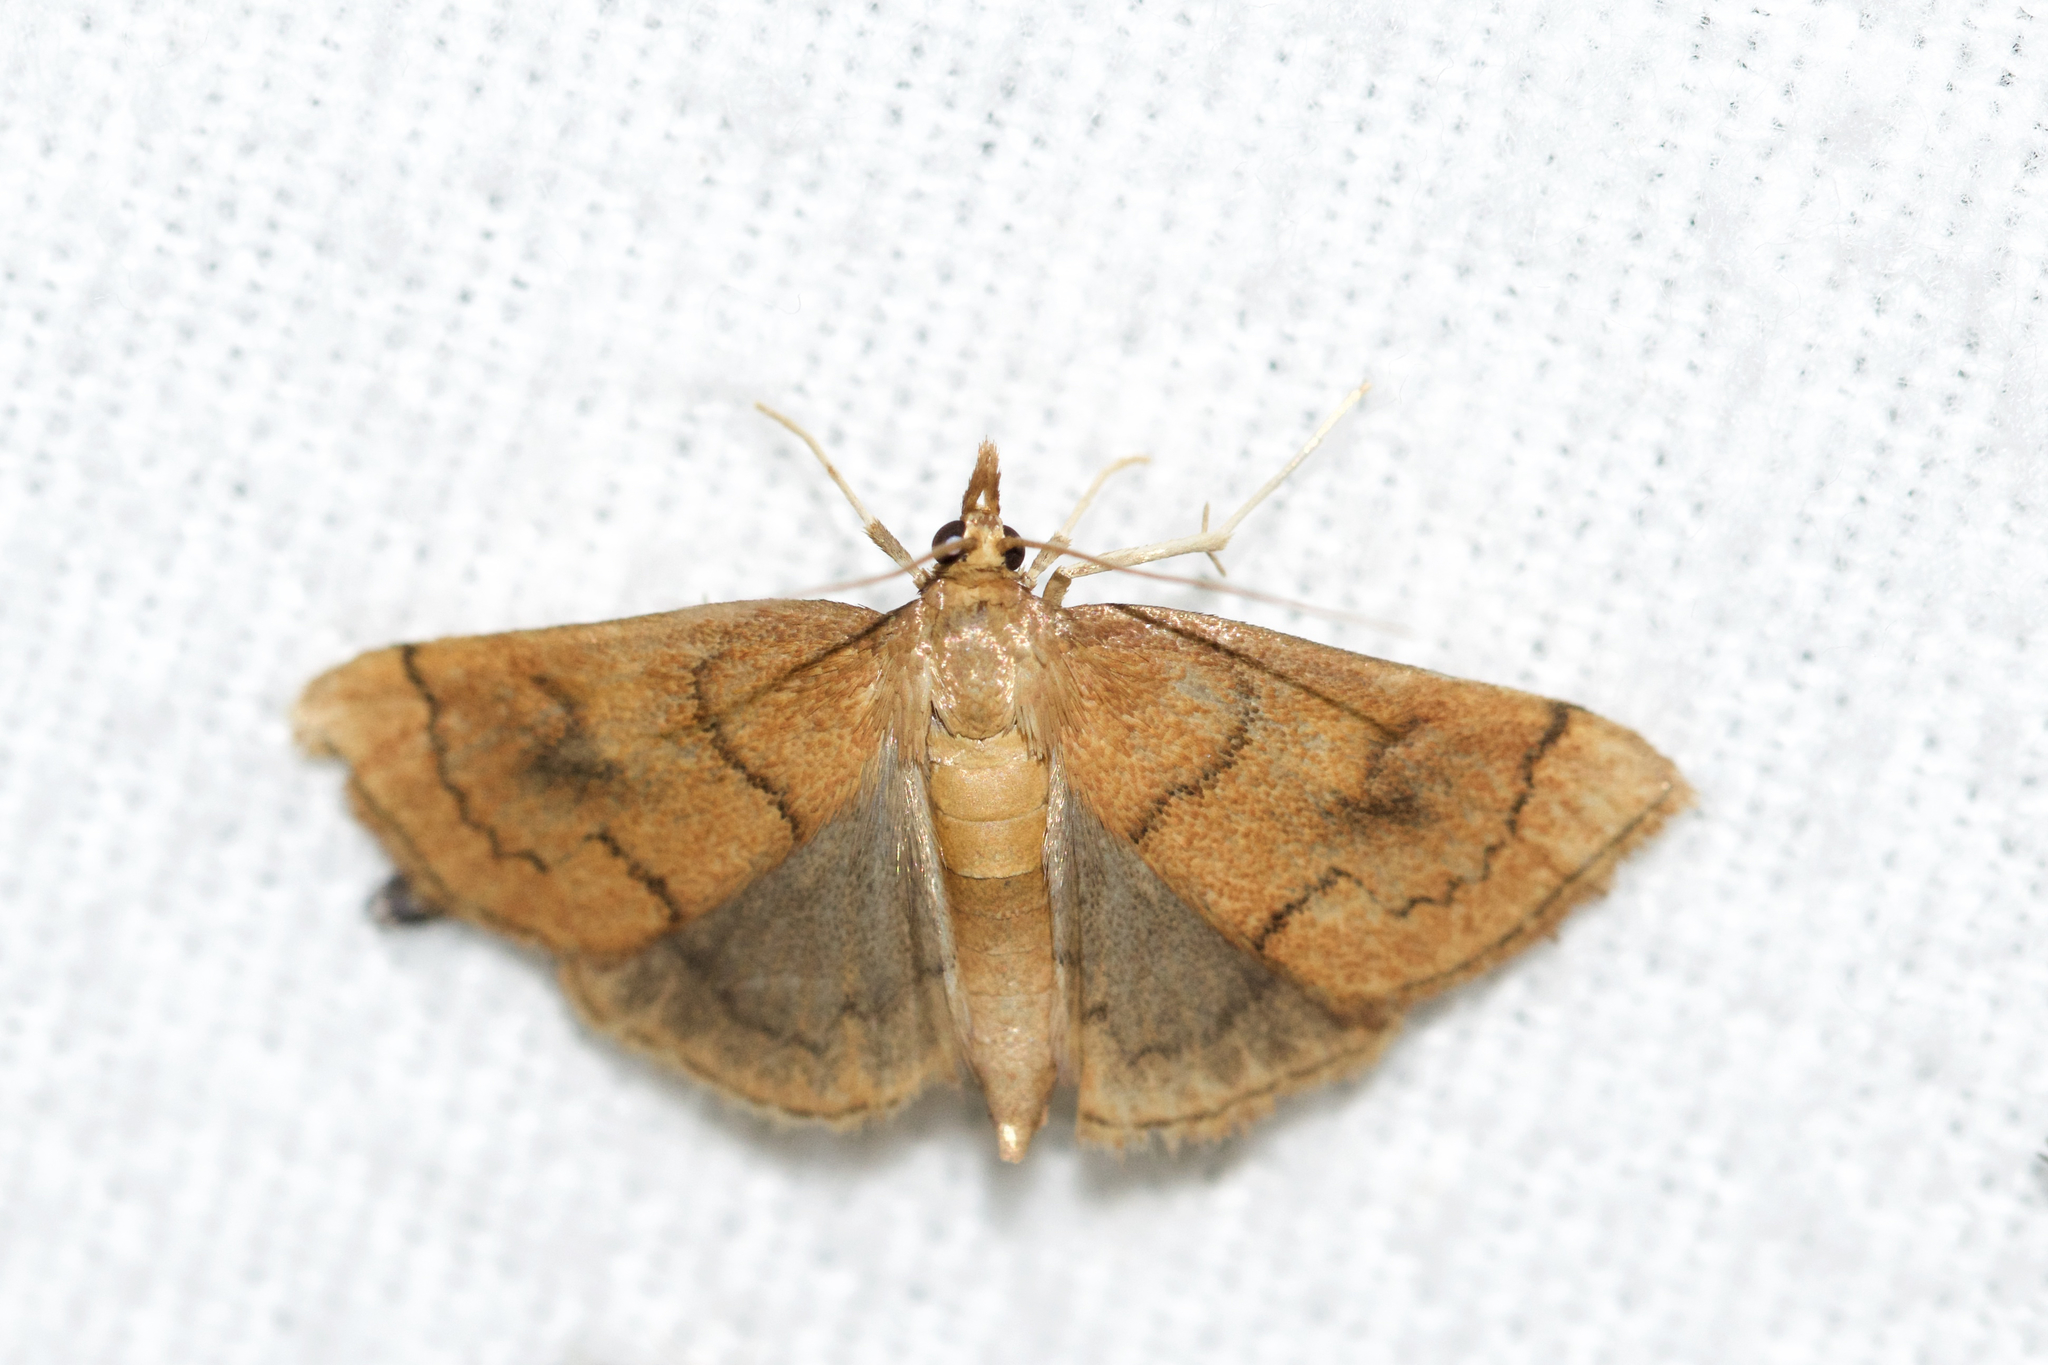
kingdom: Animalia
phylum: Arthropoda
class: Insecta
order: Lepidoptera
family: Crambidae
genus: Fumibotys
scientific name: Fumibotys fumalis
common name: Mint root borer moth
